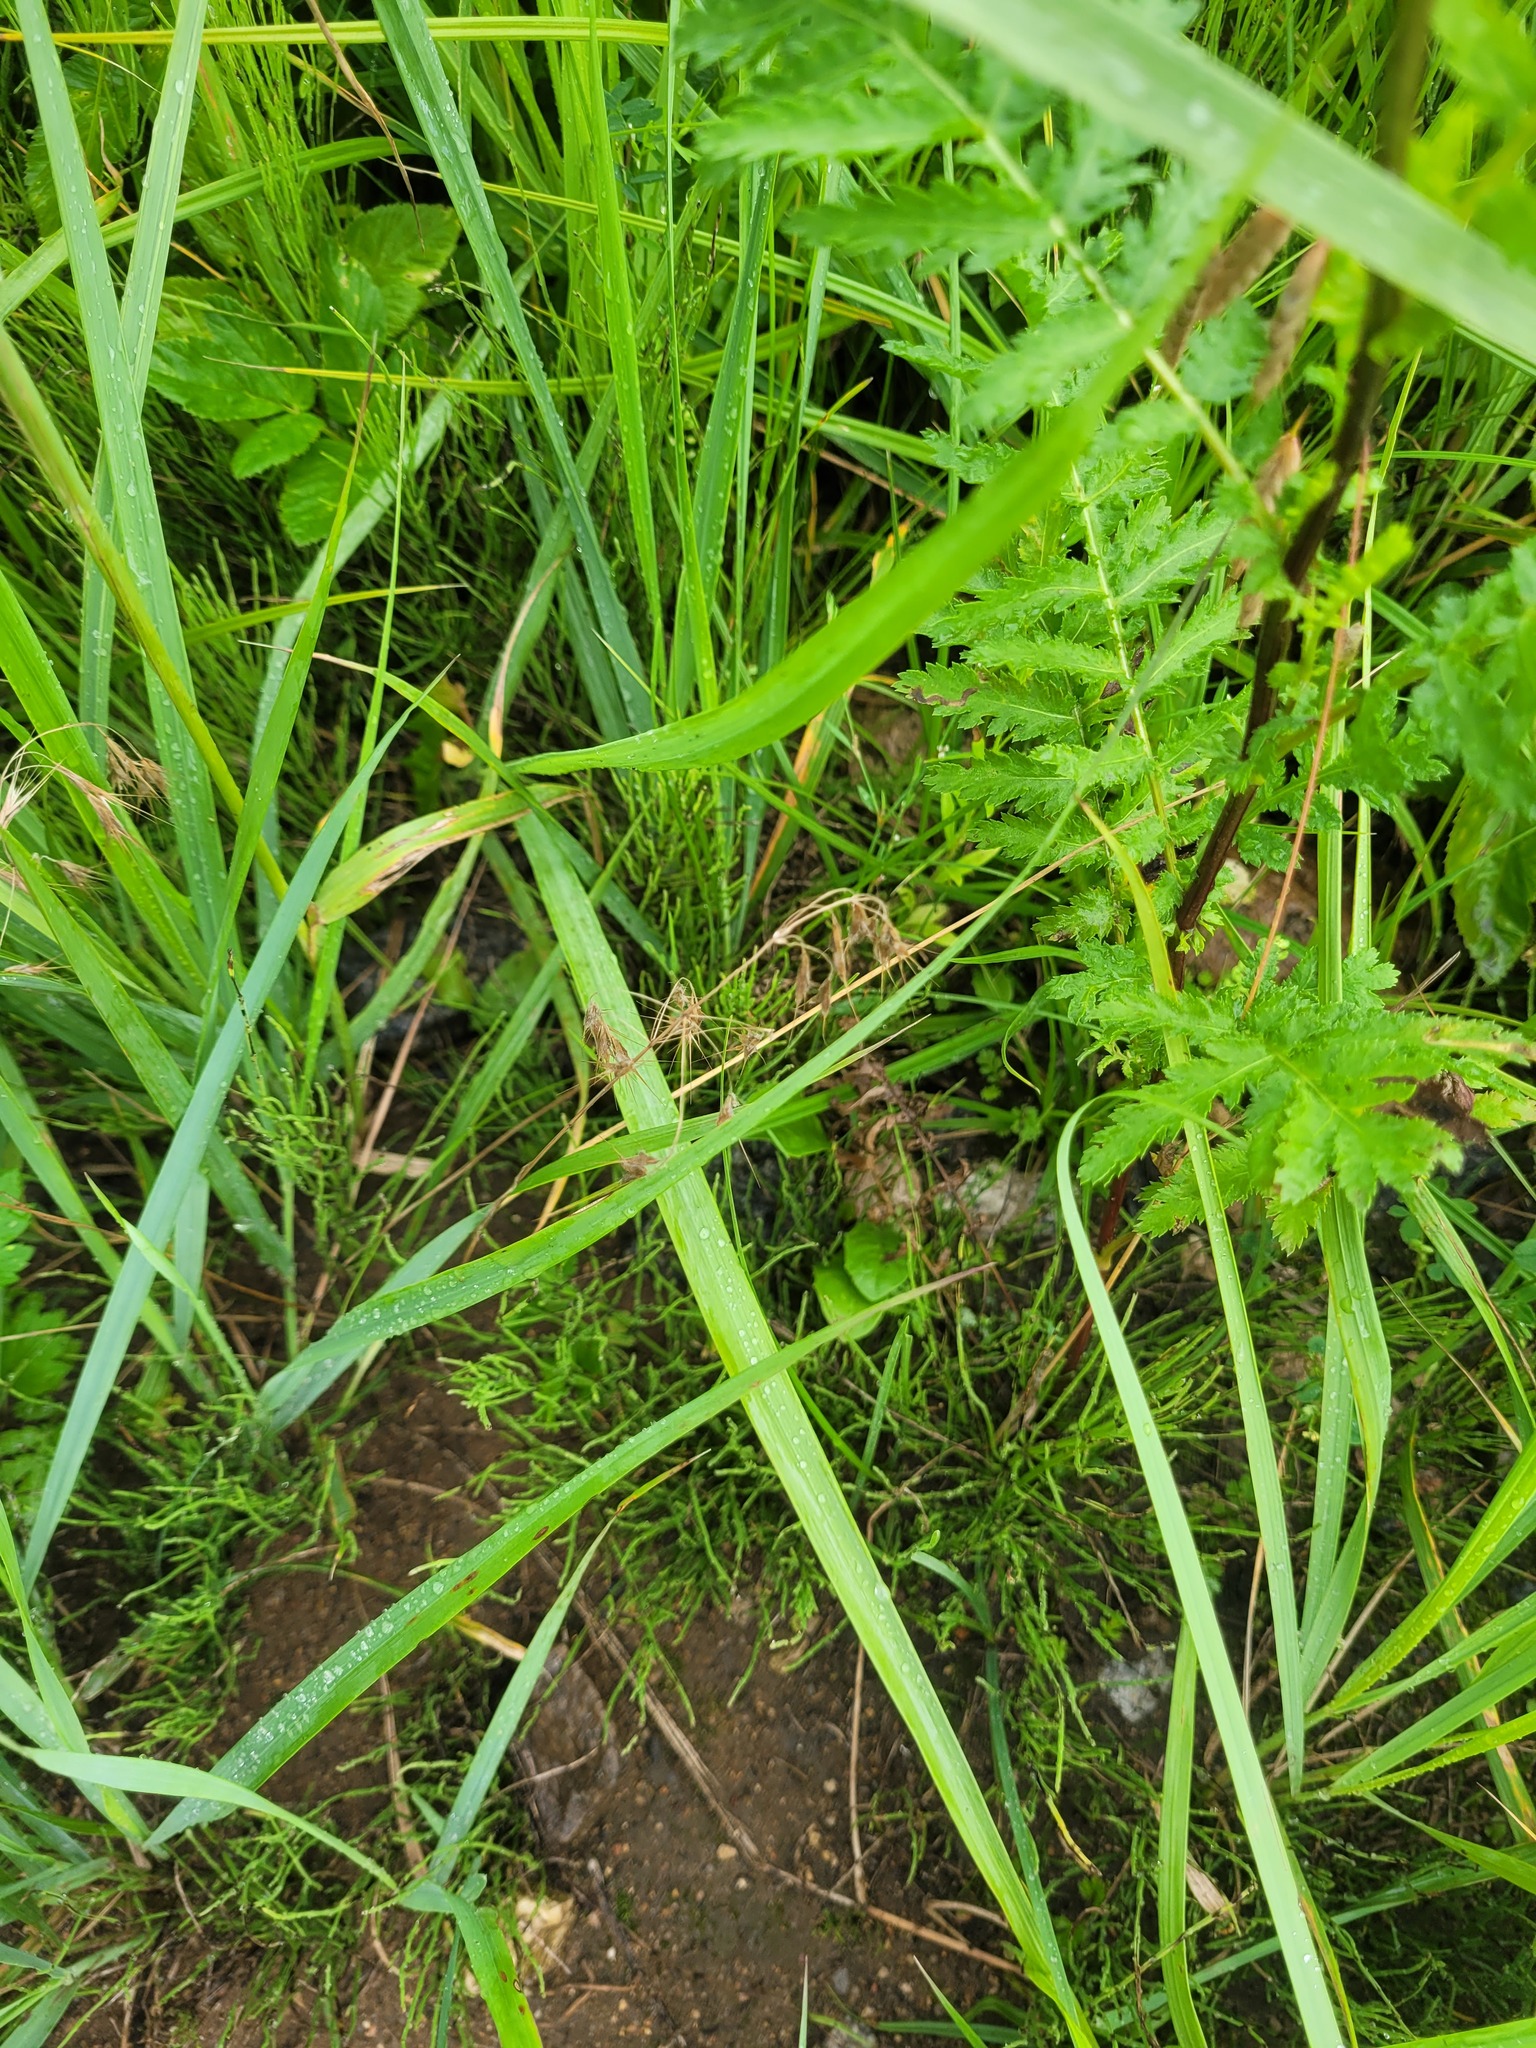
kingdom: Plantae
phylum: Tracheophyta
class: Liliopsida
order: Poales
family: Poaceae
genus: Bromus
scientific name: Bromus tectorum
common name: Cheatgrass
